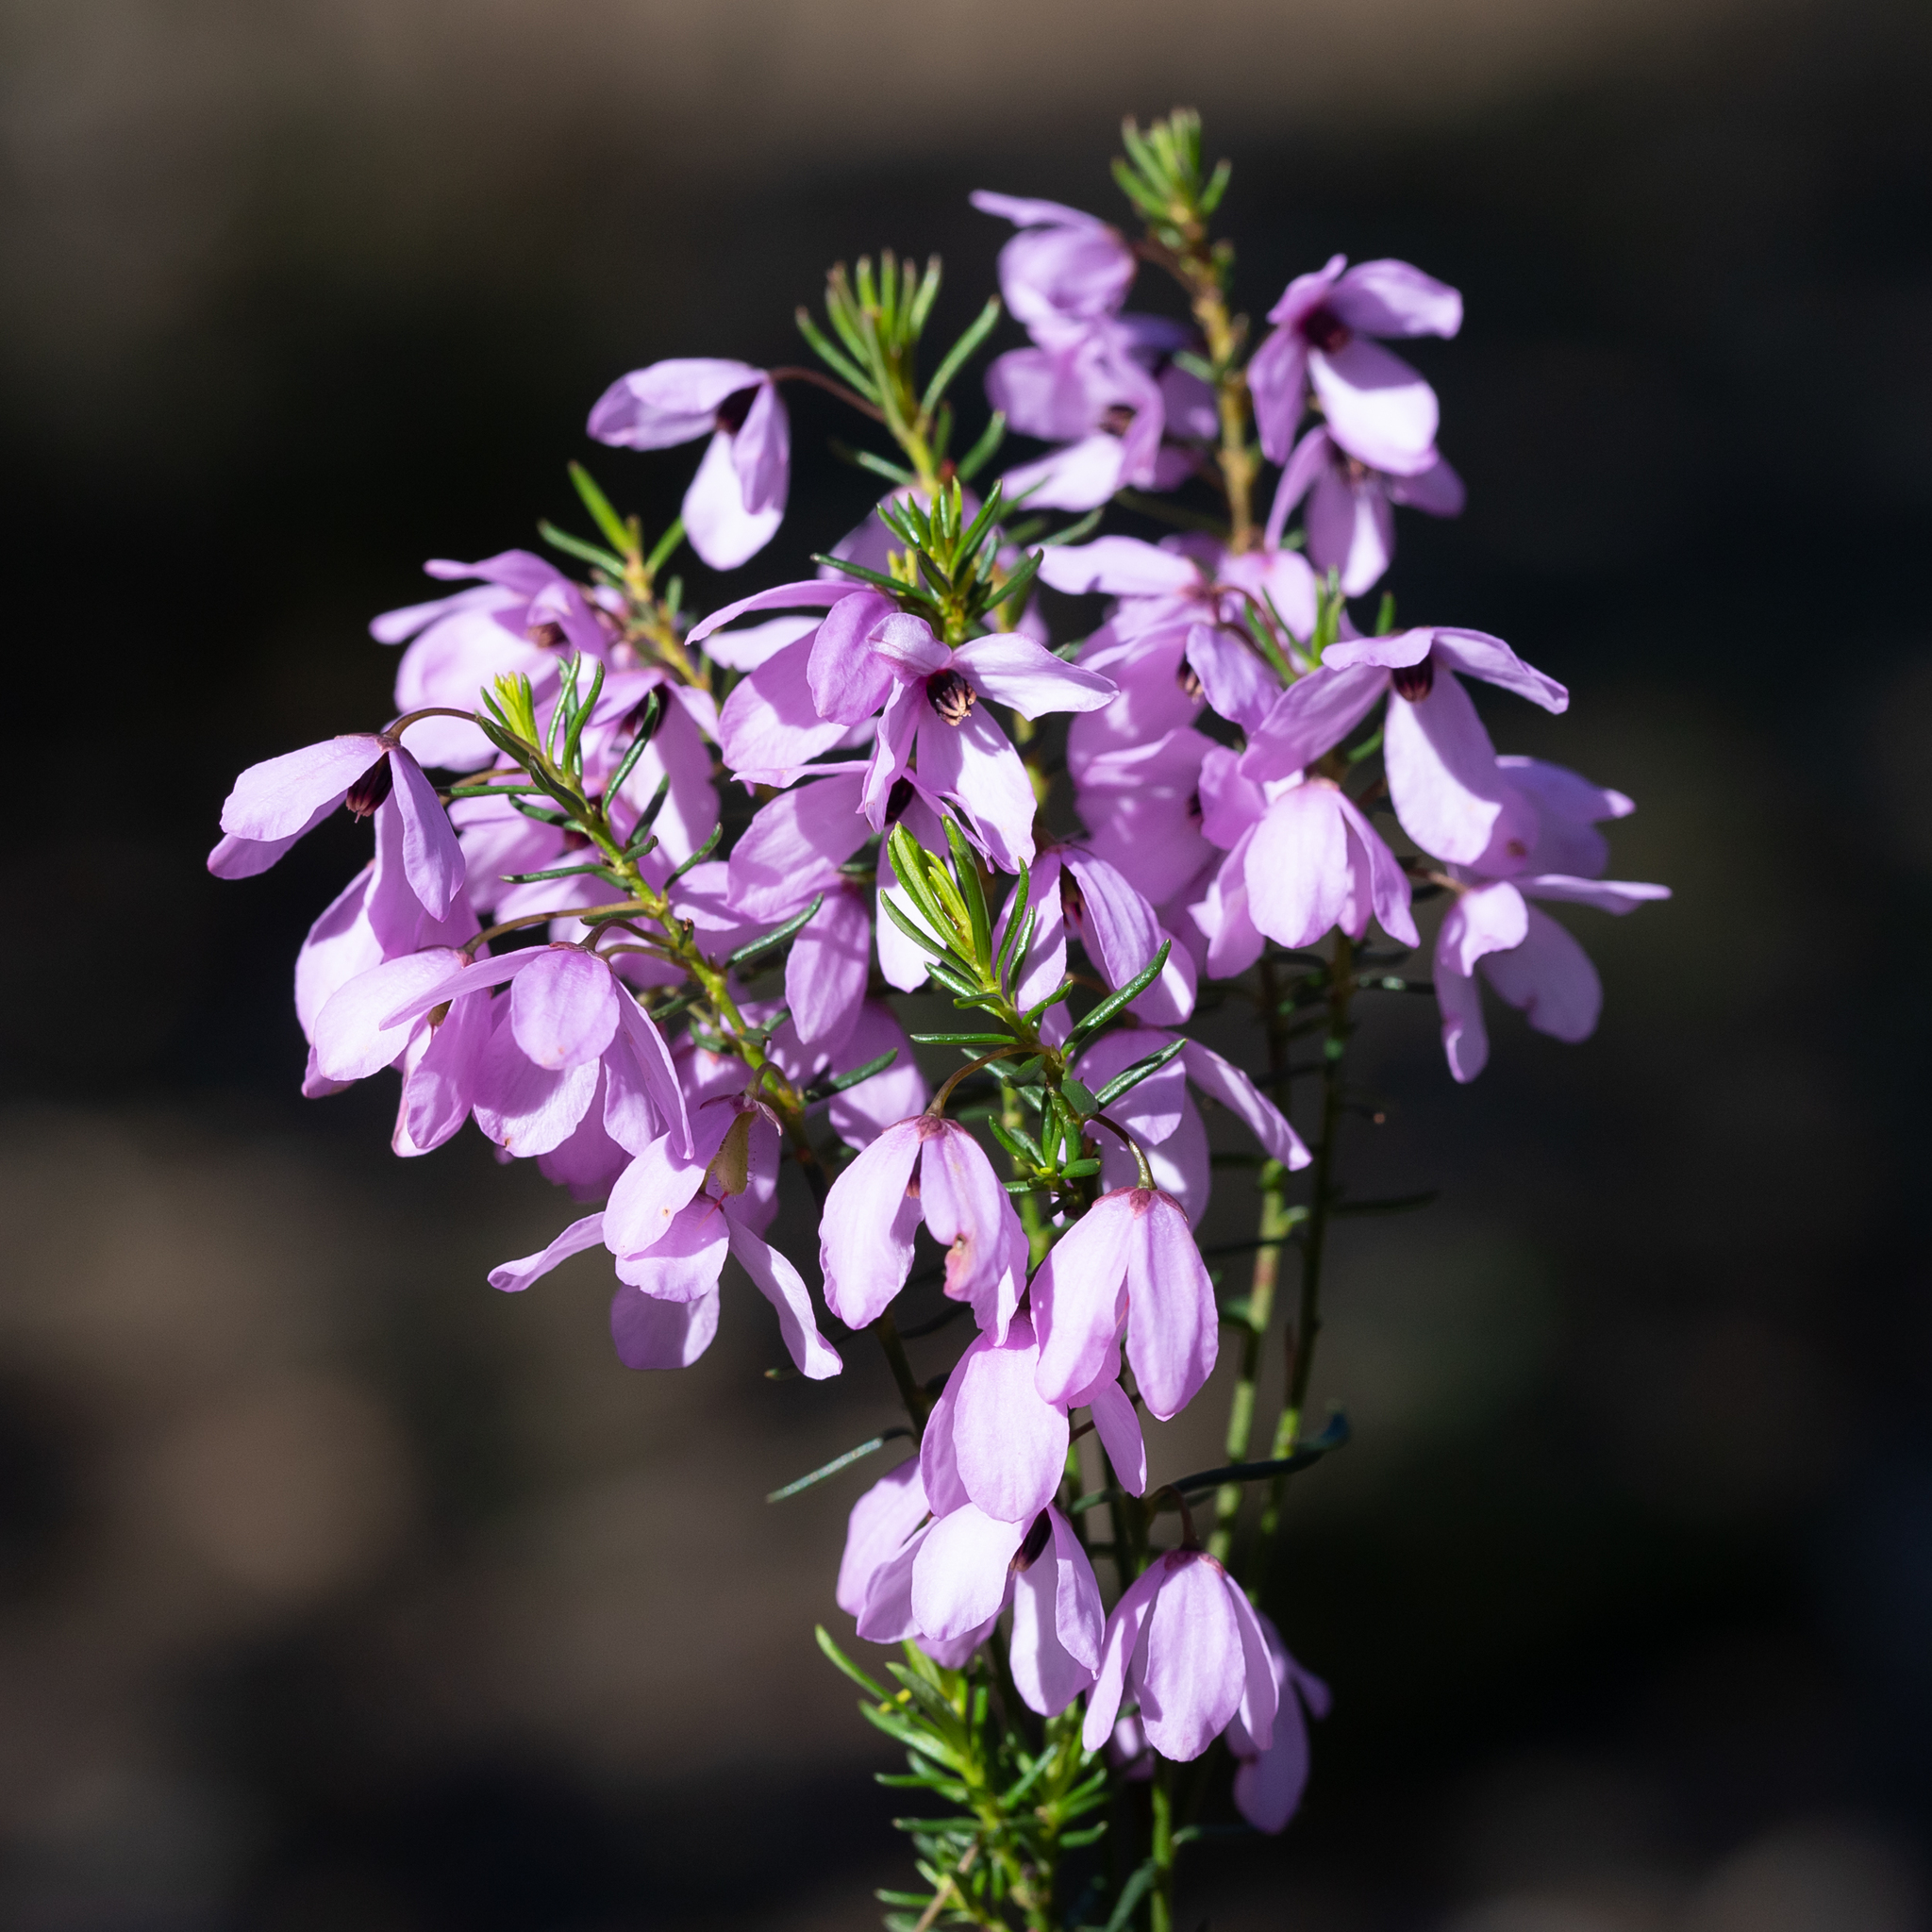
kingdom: Plantae
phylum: Tracheophyta
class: Magnoliopsida
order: Oxalidales
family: Elaeocarpaceae
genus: Tetratheca
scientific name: Tetratheca pilosa
